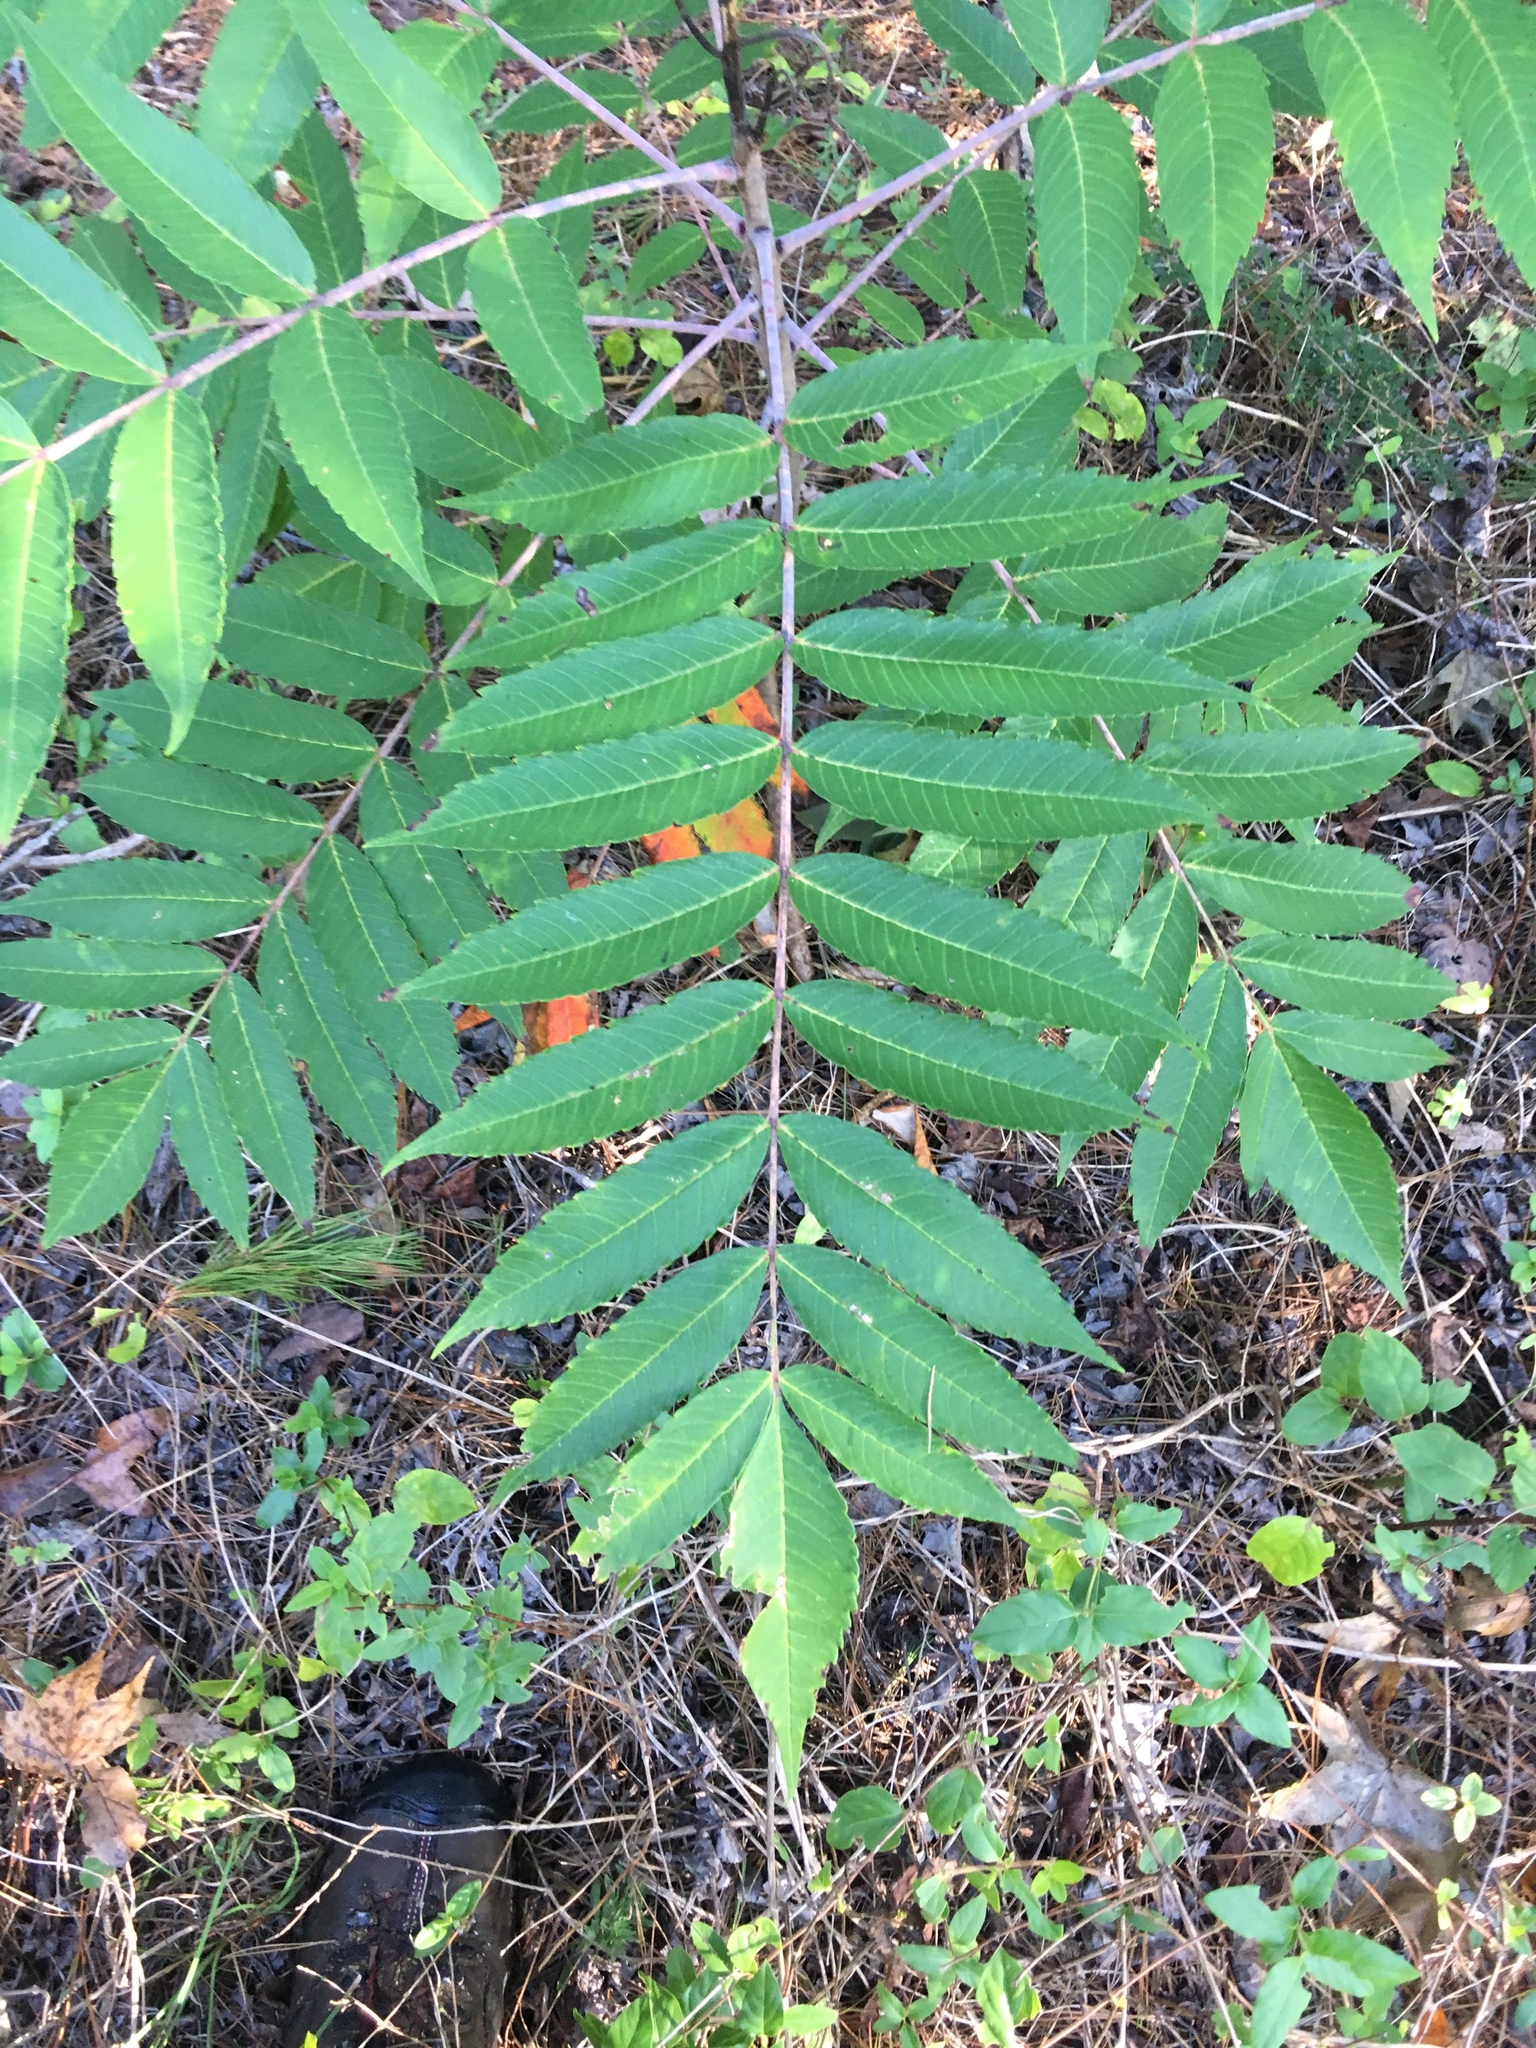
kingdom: Plantae
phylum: Tracheophyta
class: Magnoliopsida
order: Sapindales
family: Anacardiaceae
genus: Rhus
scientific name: Rhus glabra
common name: Scarlet sumac
